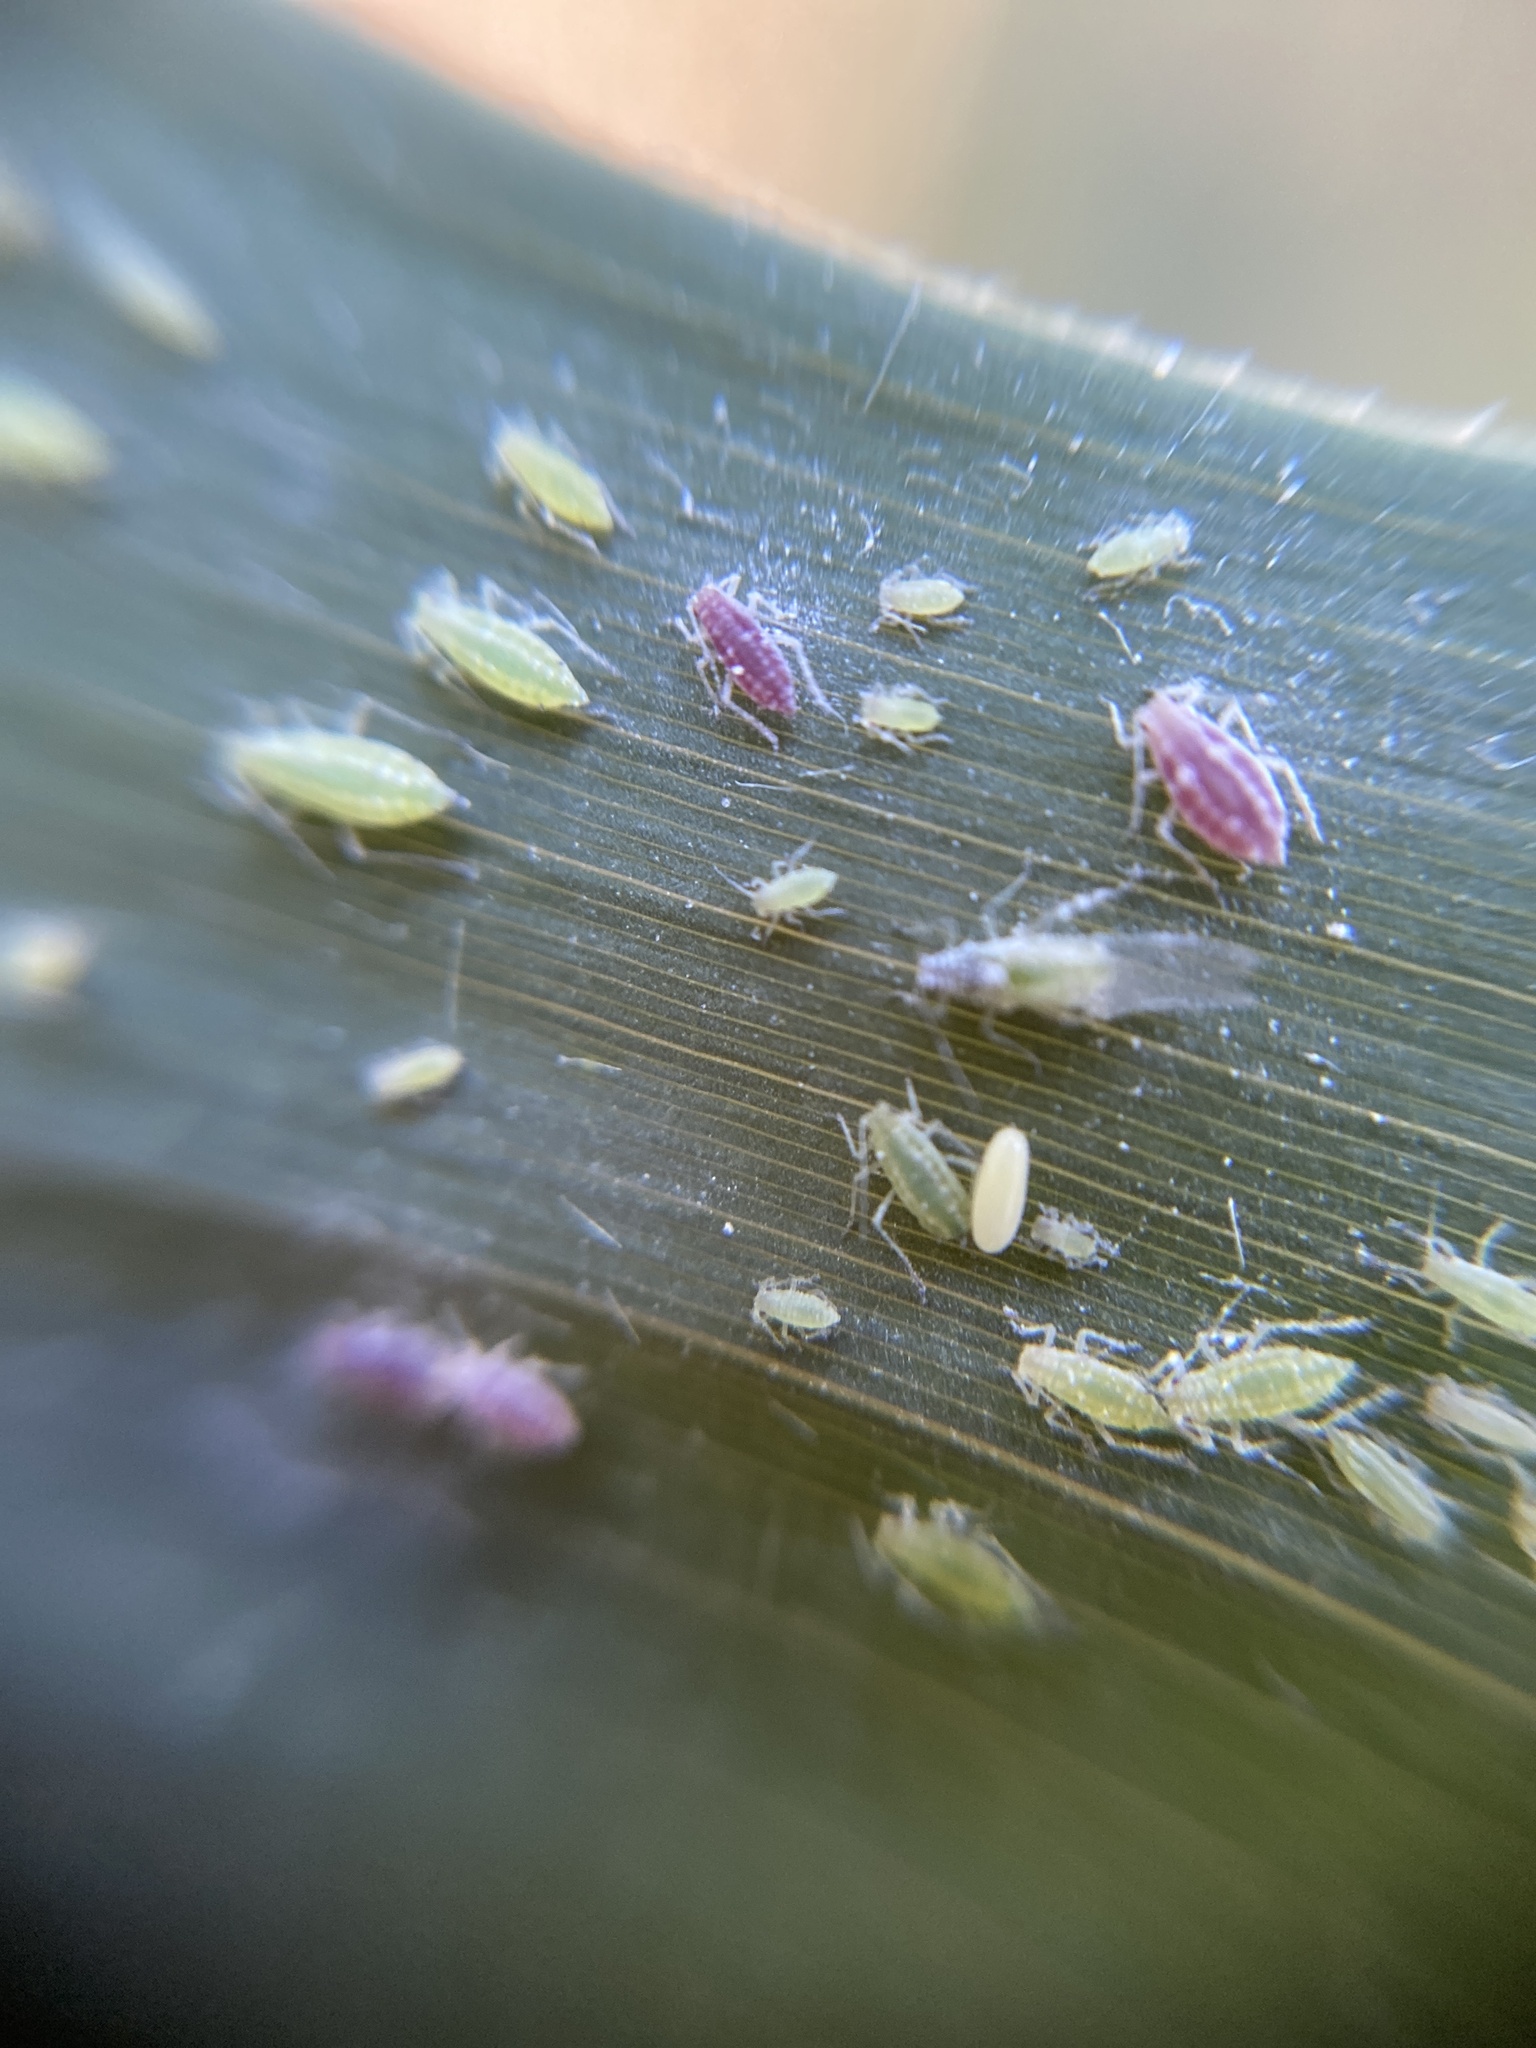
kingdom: Animalia
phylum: Arthropoda
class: Insecta
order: Hemiptera
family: Aphididae
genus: Hyalopterus
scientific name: Hyalopterus
